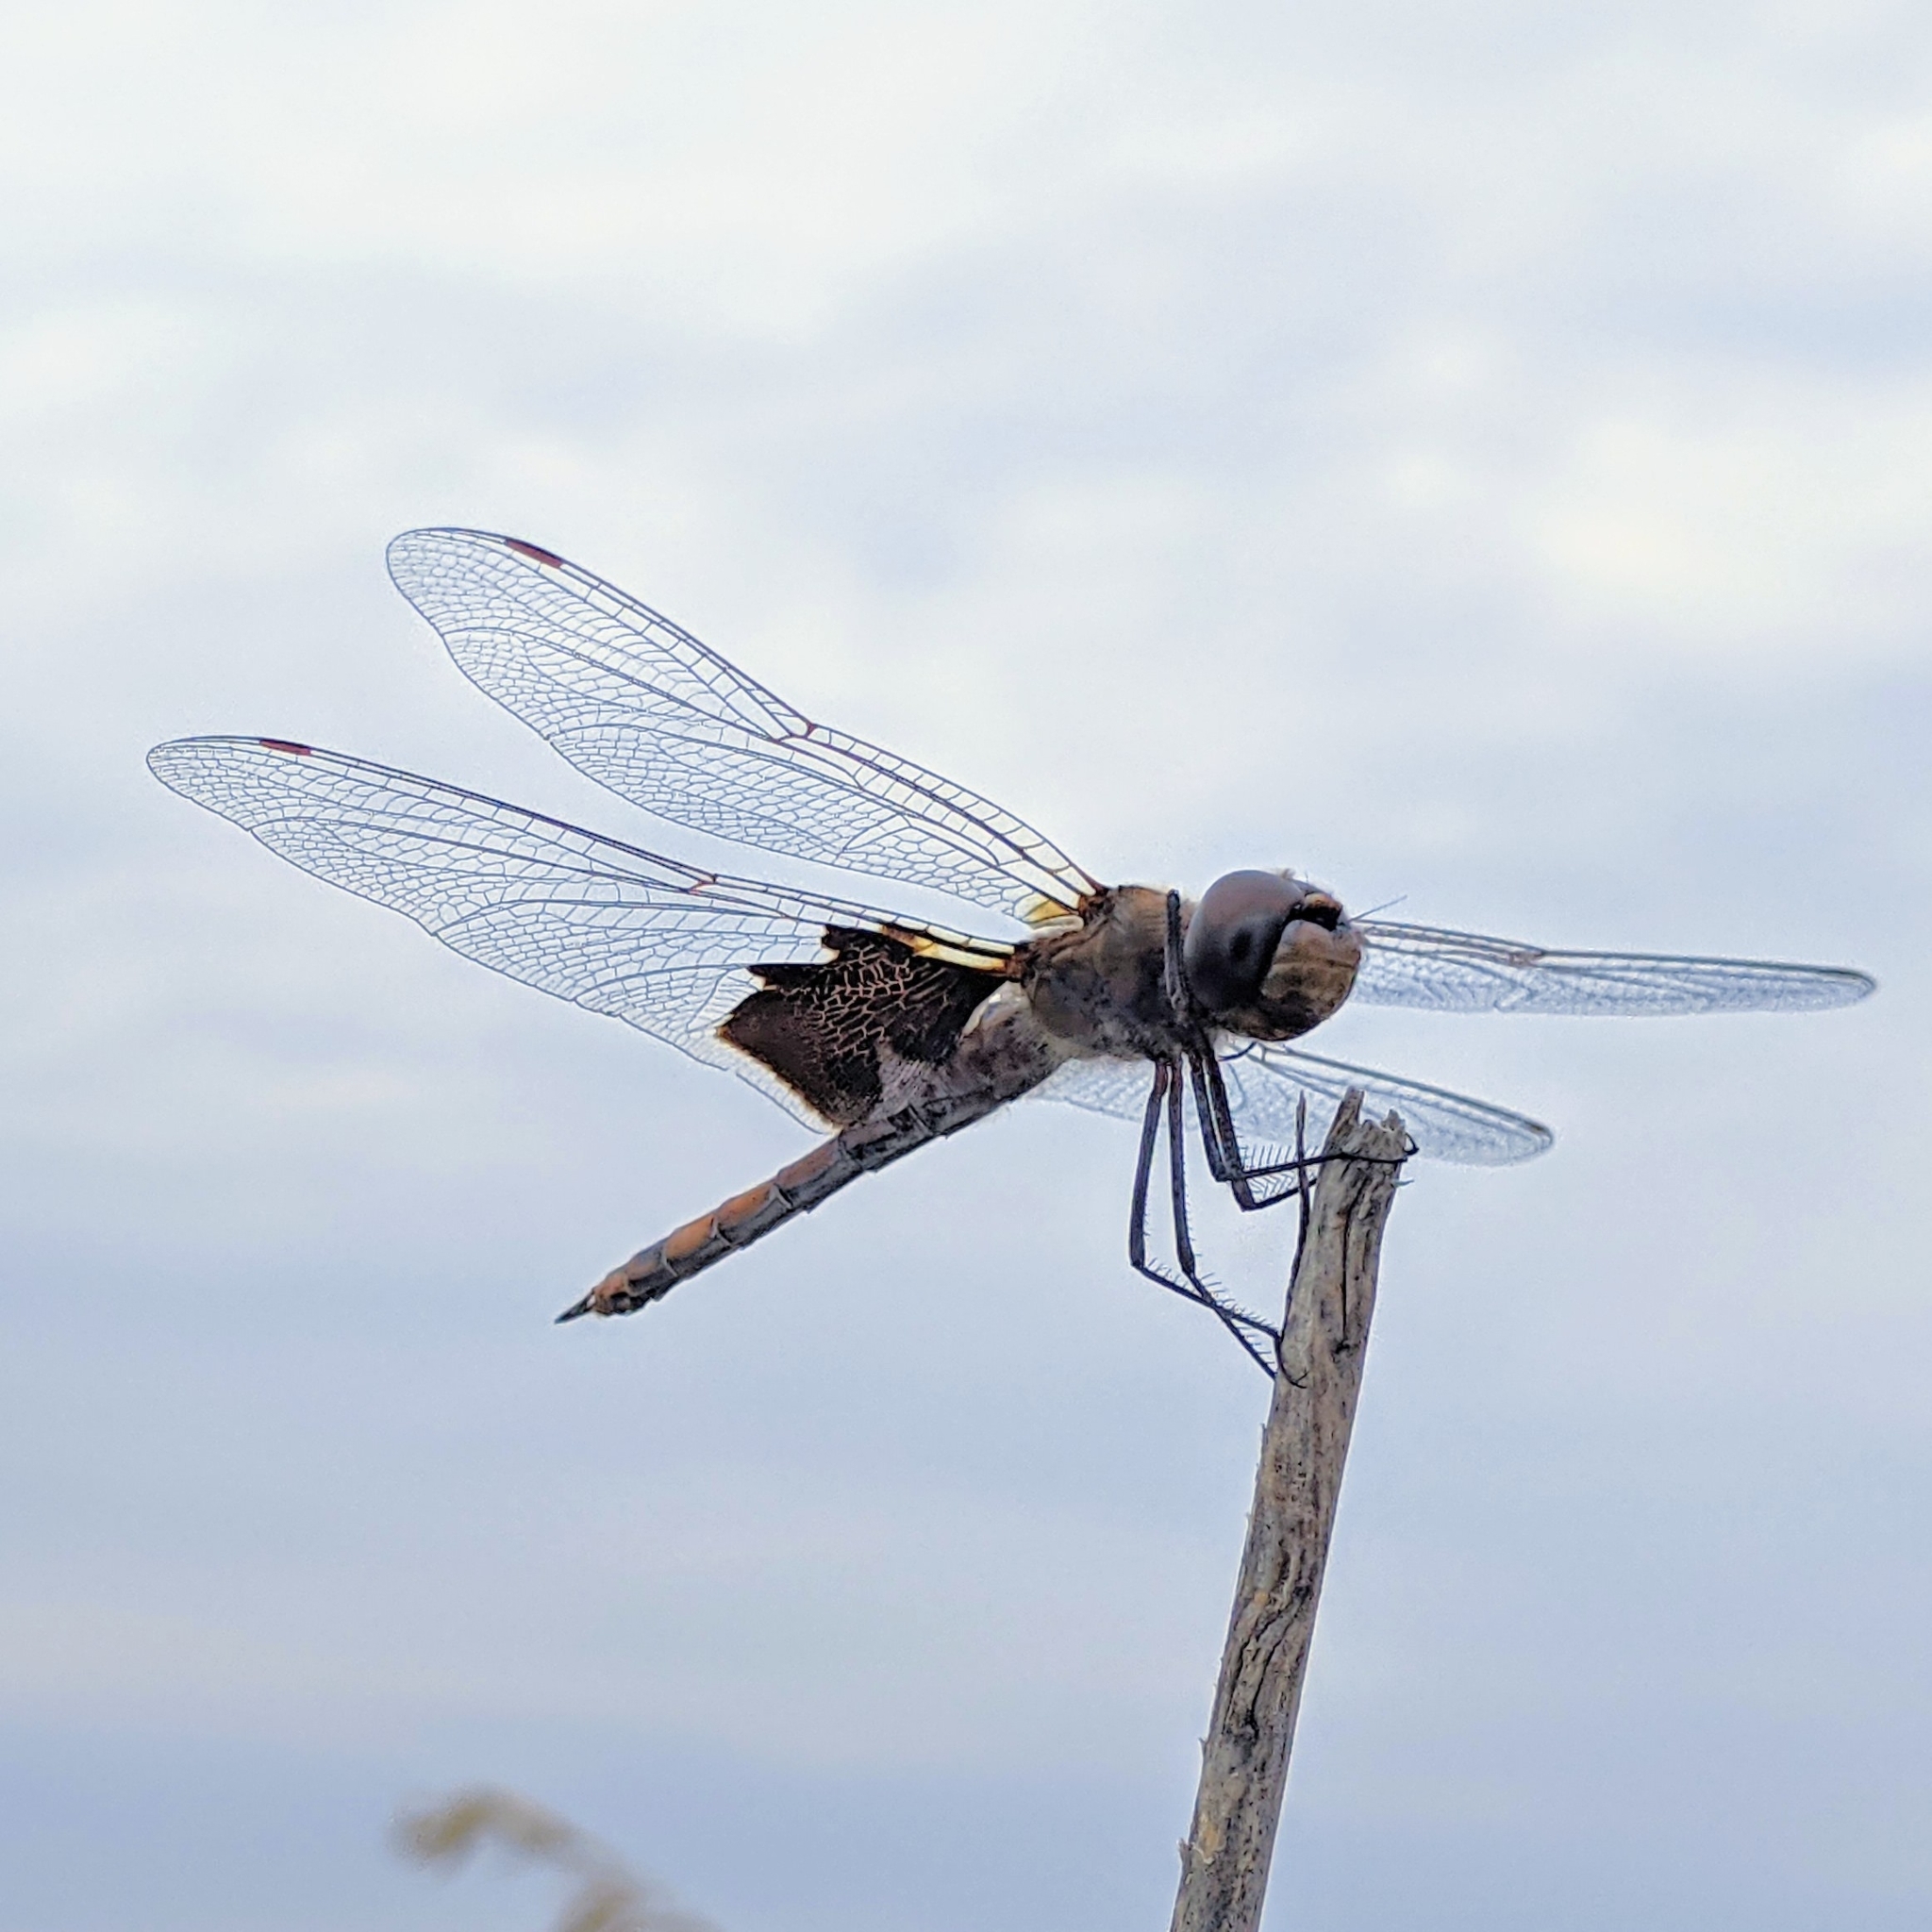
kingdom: Animalia
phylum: Arthropoda
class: Insecta
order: Odonata
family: Libellulidae
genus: Tramea
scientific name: Tramea onusta
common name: Red saddlebags
